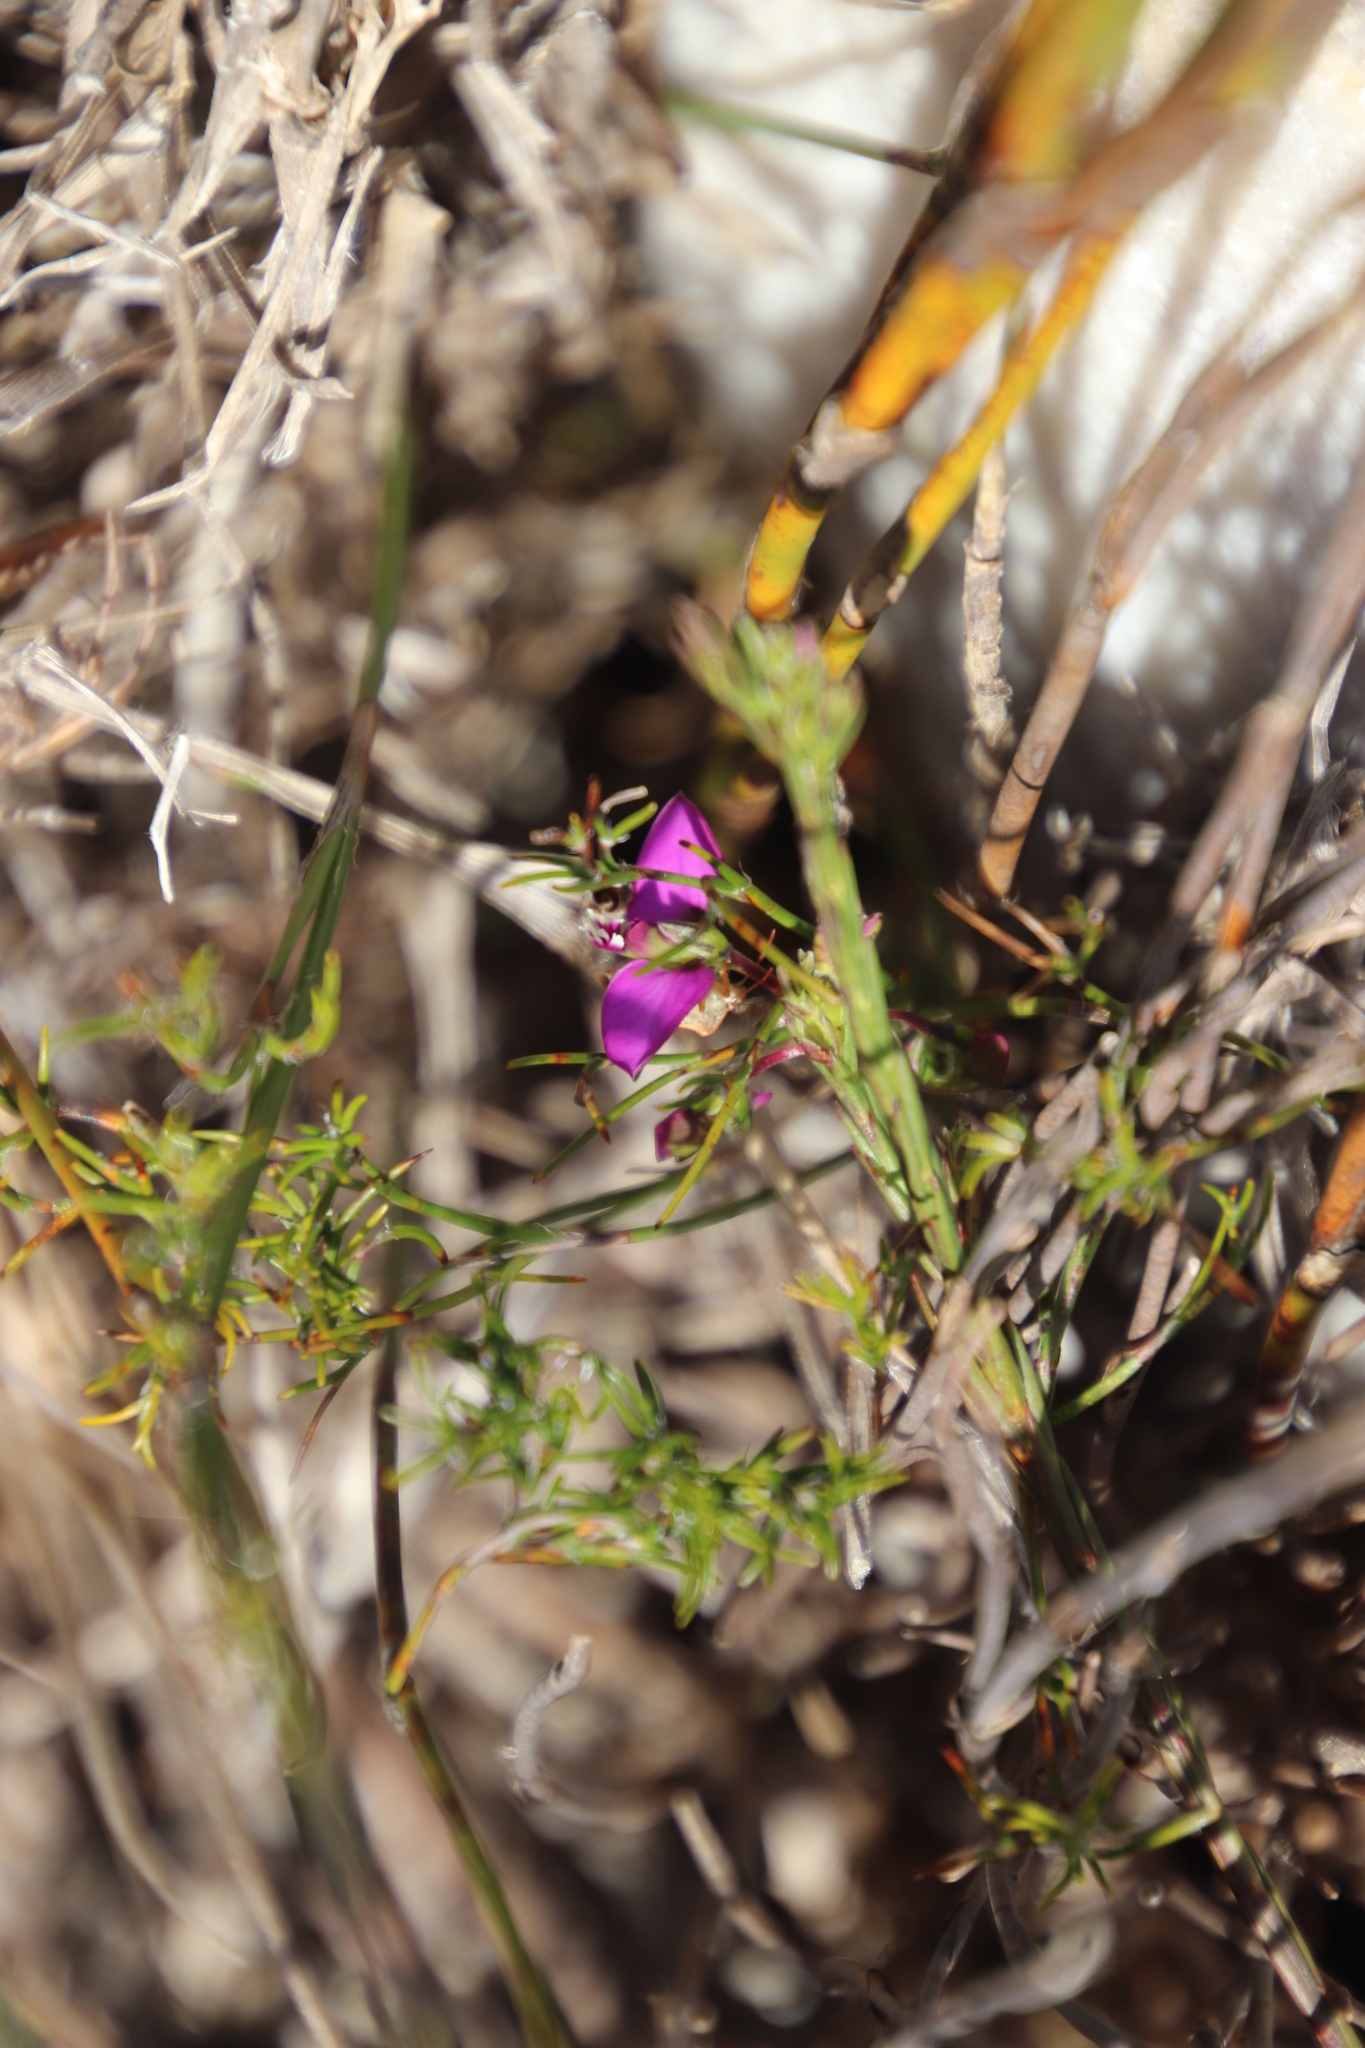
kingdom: Plantae
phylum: Tracheophyta
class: Magnoliopsida
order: Fabales
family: Polygalaceae
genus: Polygala
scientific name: Polygala recognita
